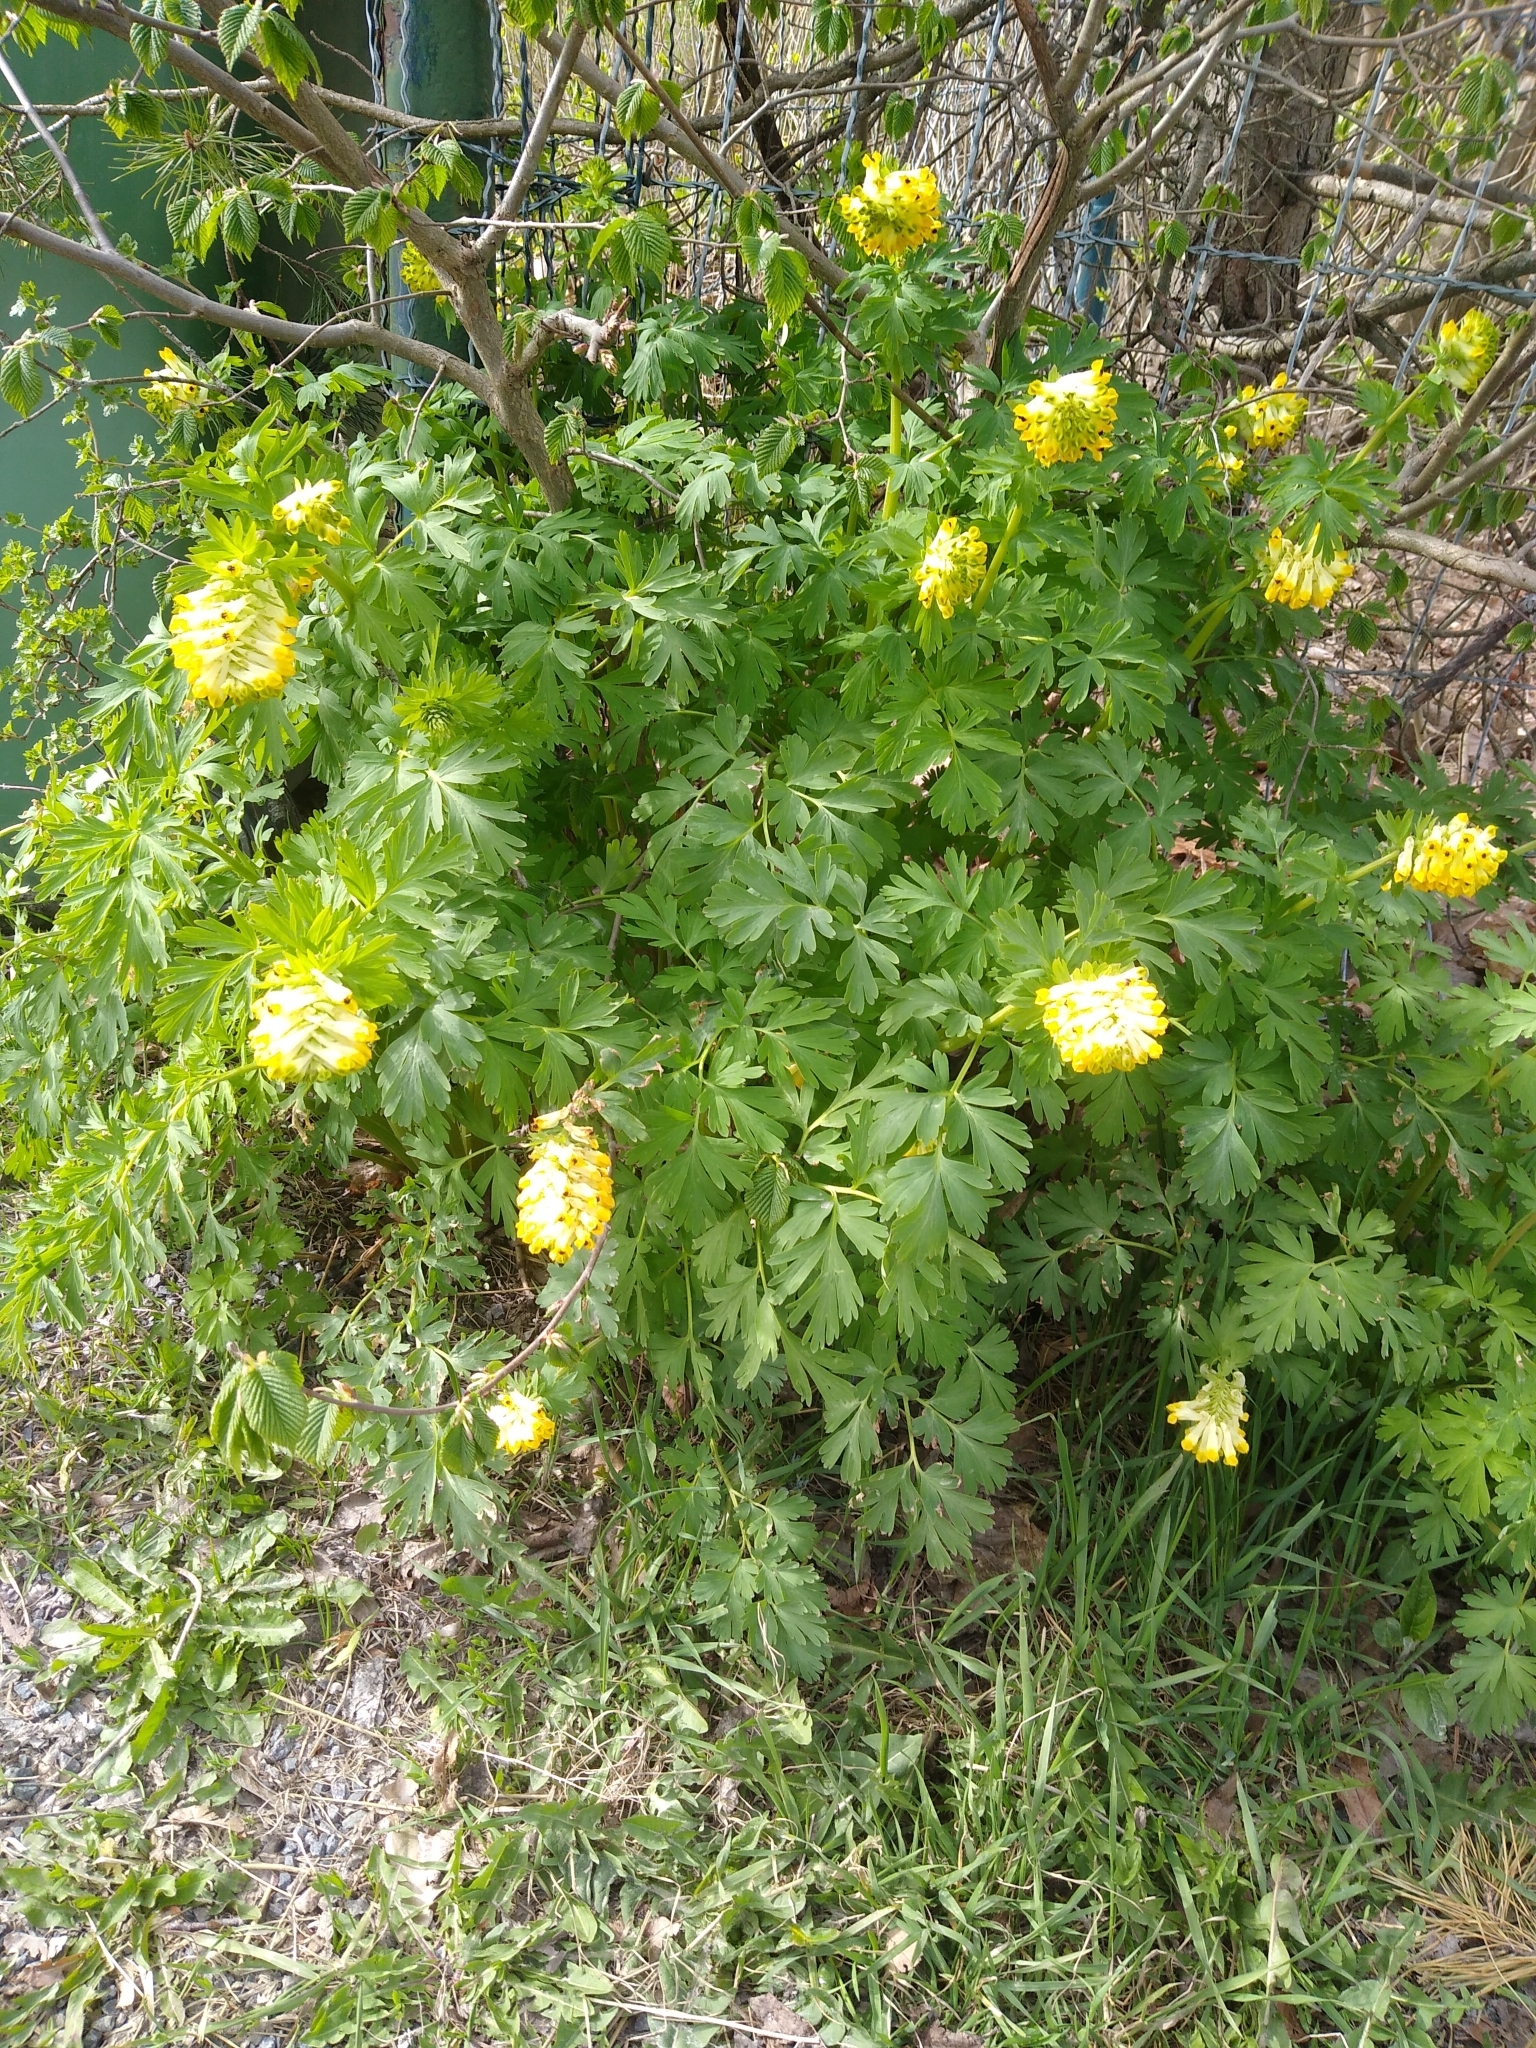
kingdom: Plantae
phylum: Tracheophyta
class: Magnoliopsida
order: Ranunculales
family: Papaveraceae
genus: Corydalis
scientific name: Corydalis nobilis
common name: Siberian corydalis
